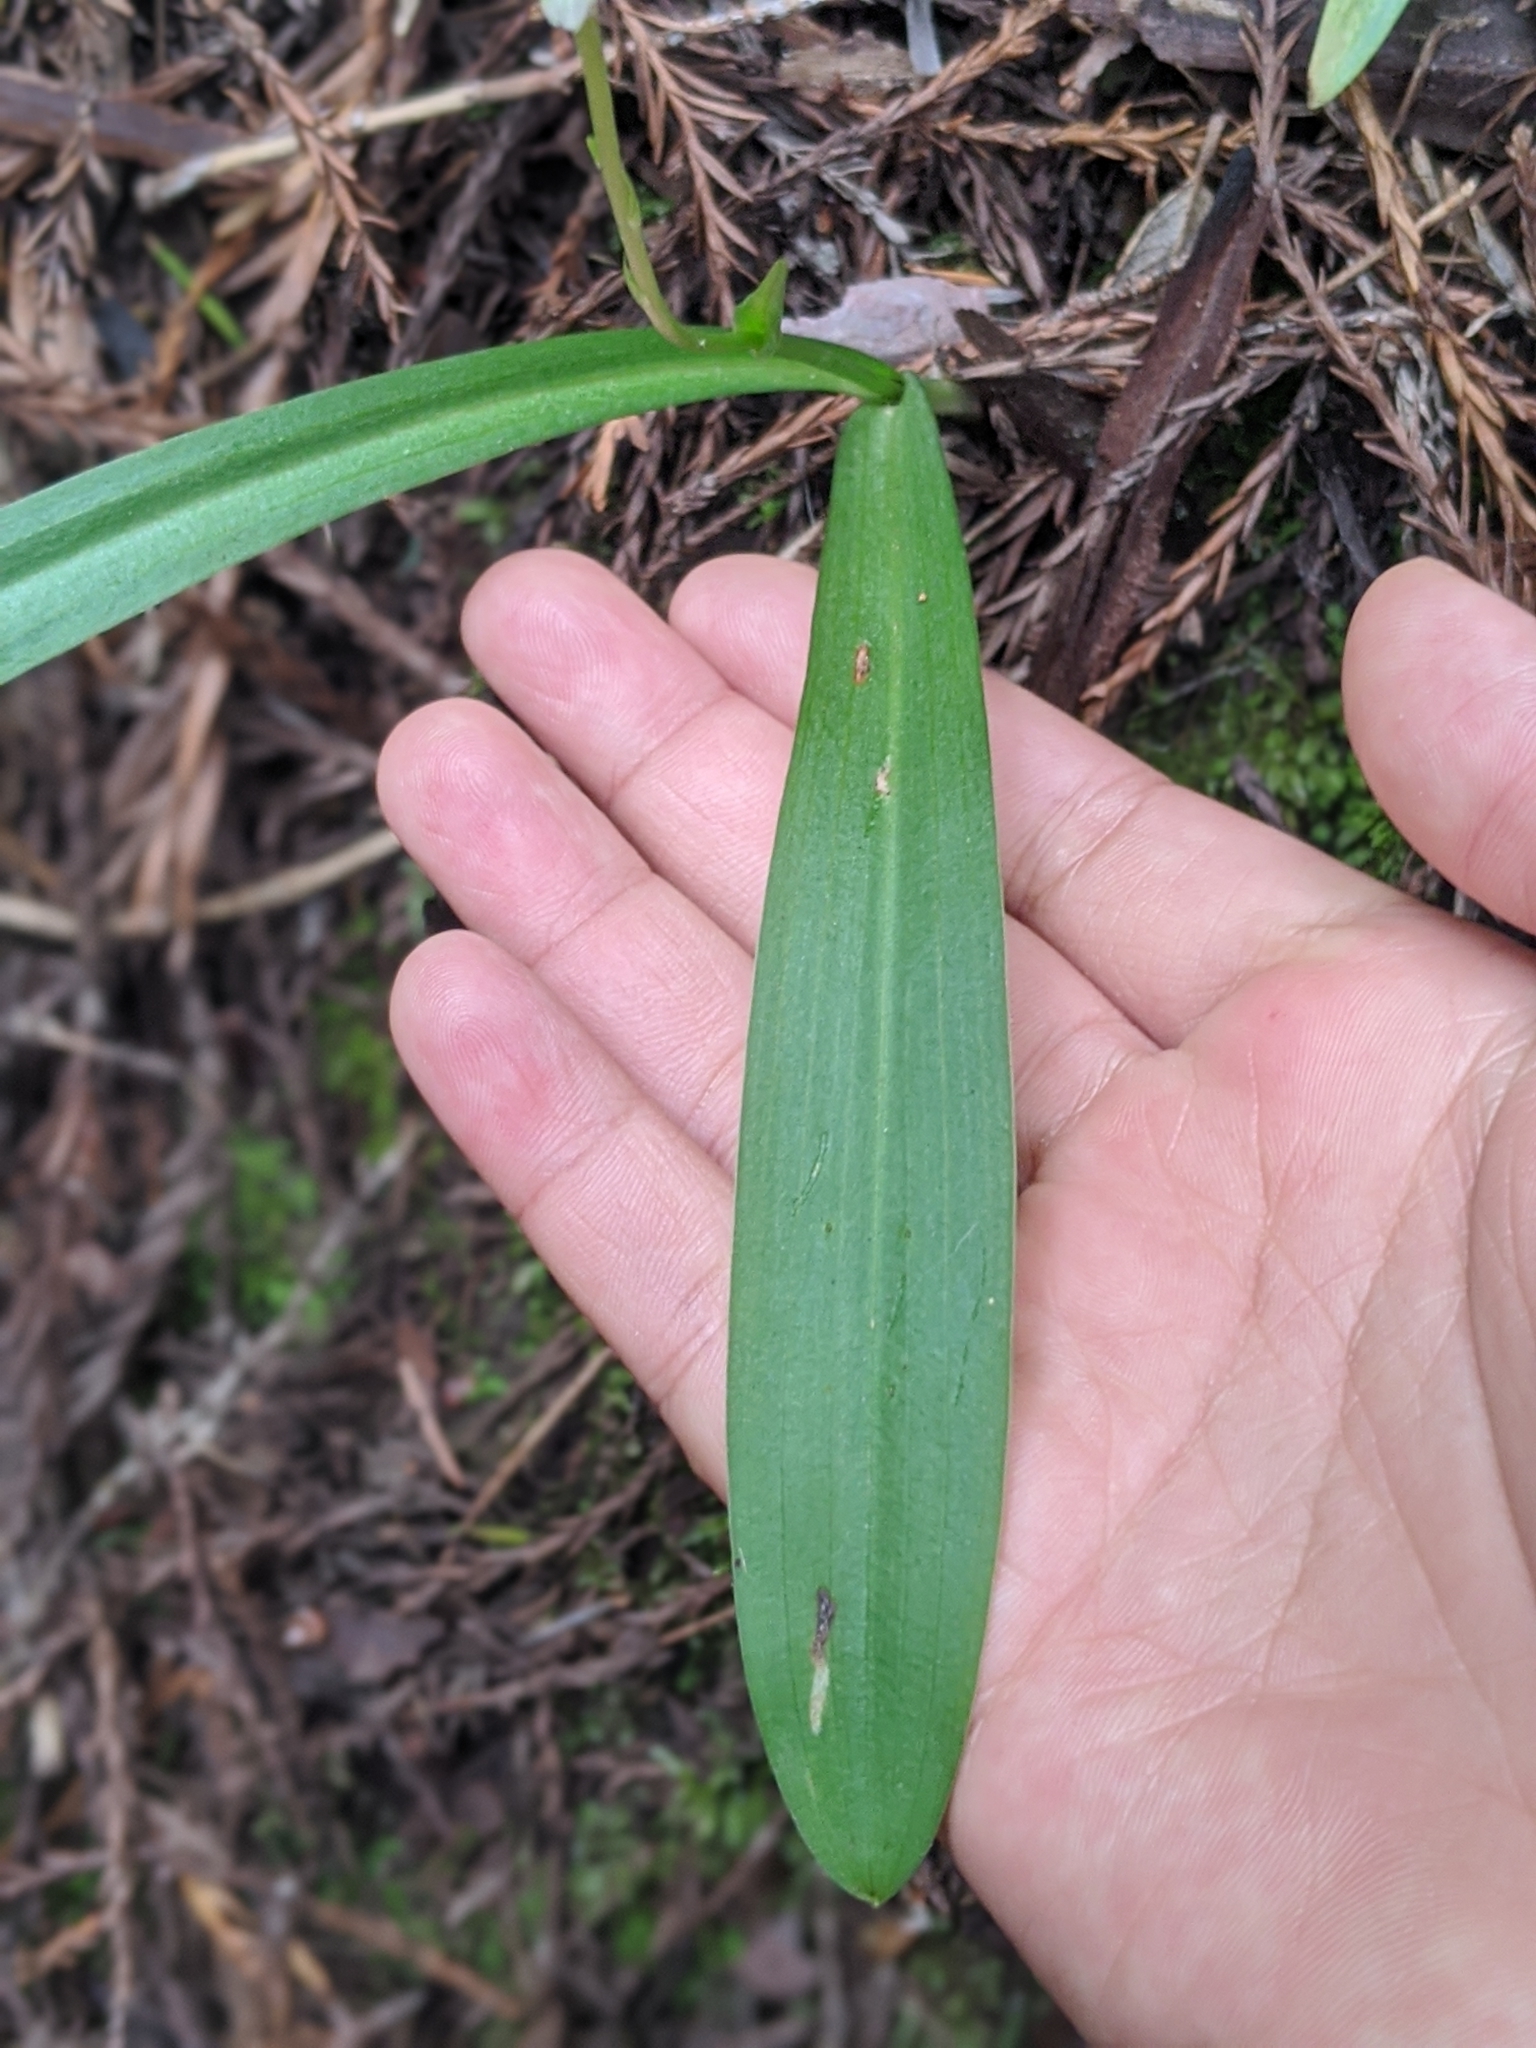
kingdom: Plantae
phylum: Tracheophyta
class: Liliopsida
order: Asparagales
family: Orchidaceae
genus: Platanthera
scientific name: Platanthera ephemerantha
